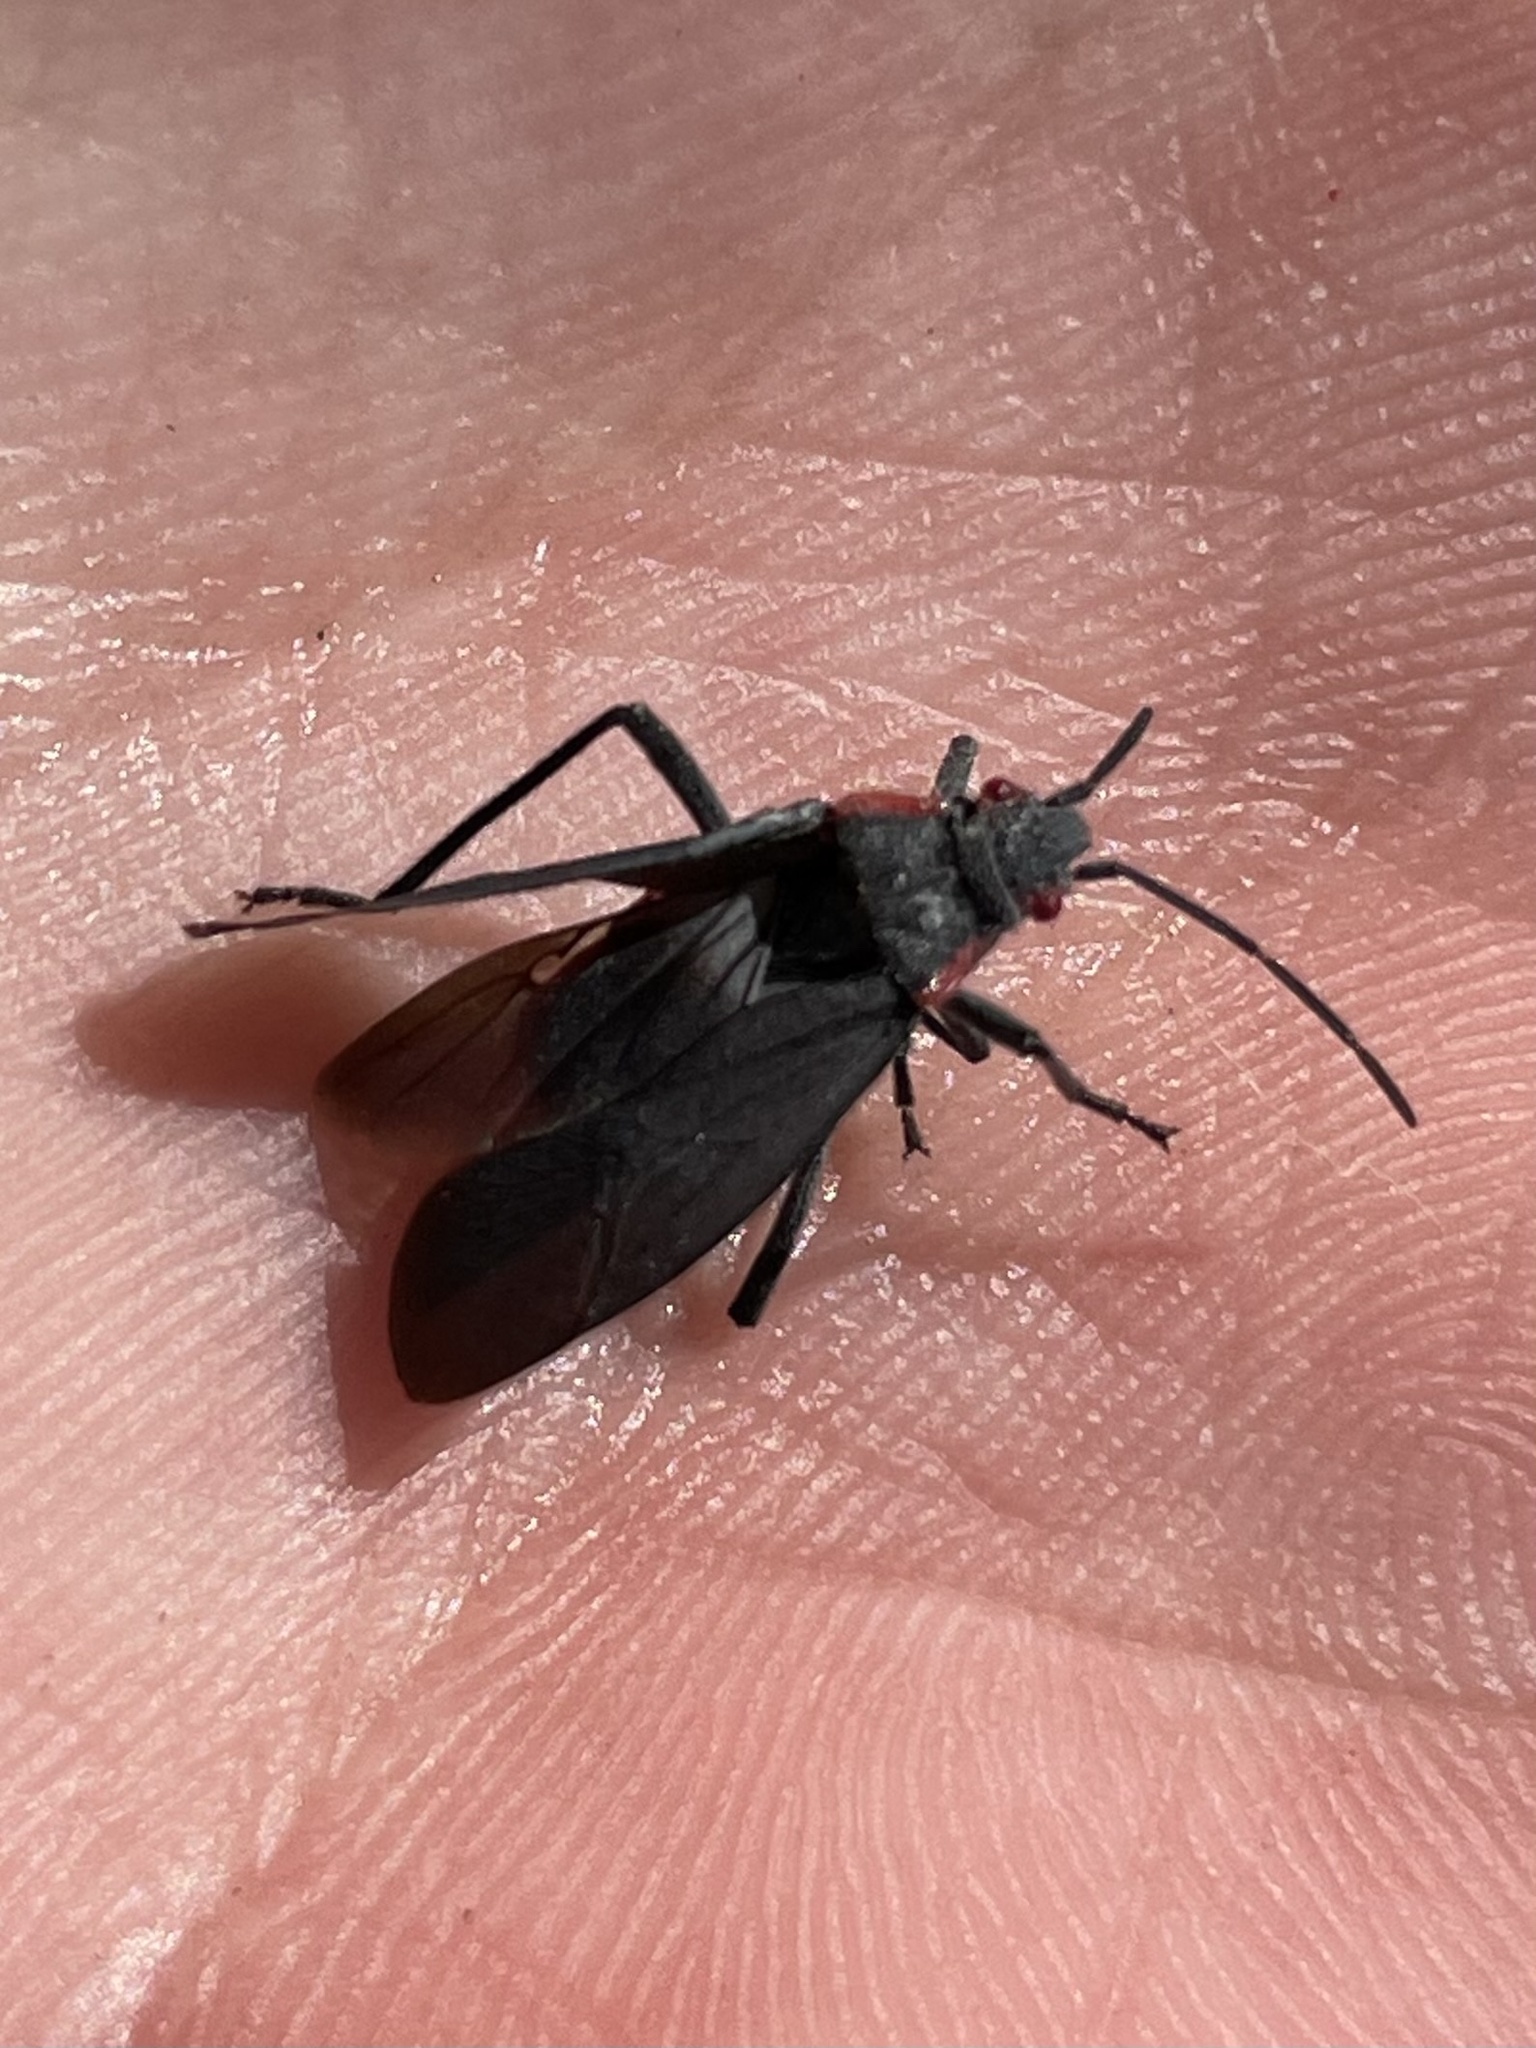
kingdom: Animalia
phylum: Arthropoda
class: Insecta
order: Hemiptera
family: Rhopalidae
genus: Jadera
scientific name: Jadera haematoloma
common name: Red-shouldered bug
